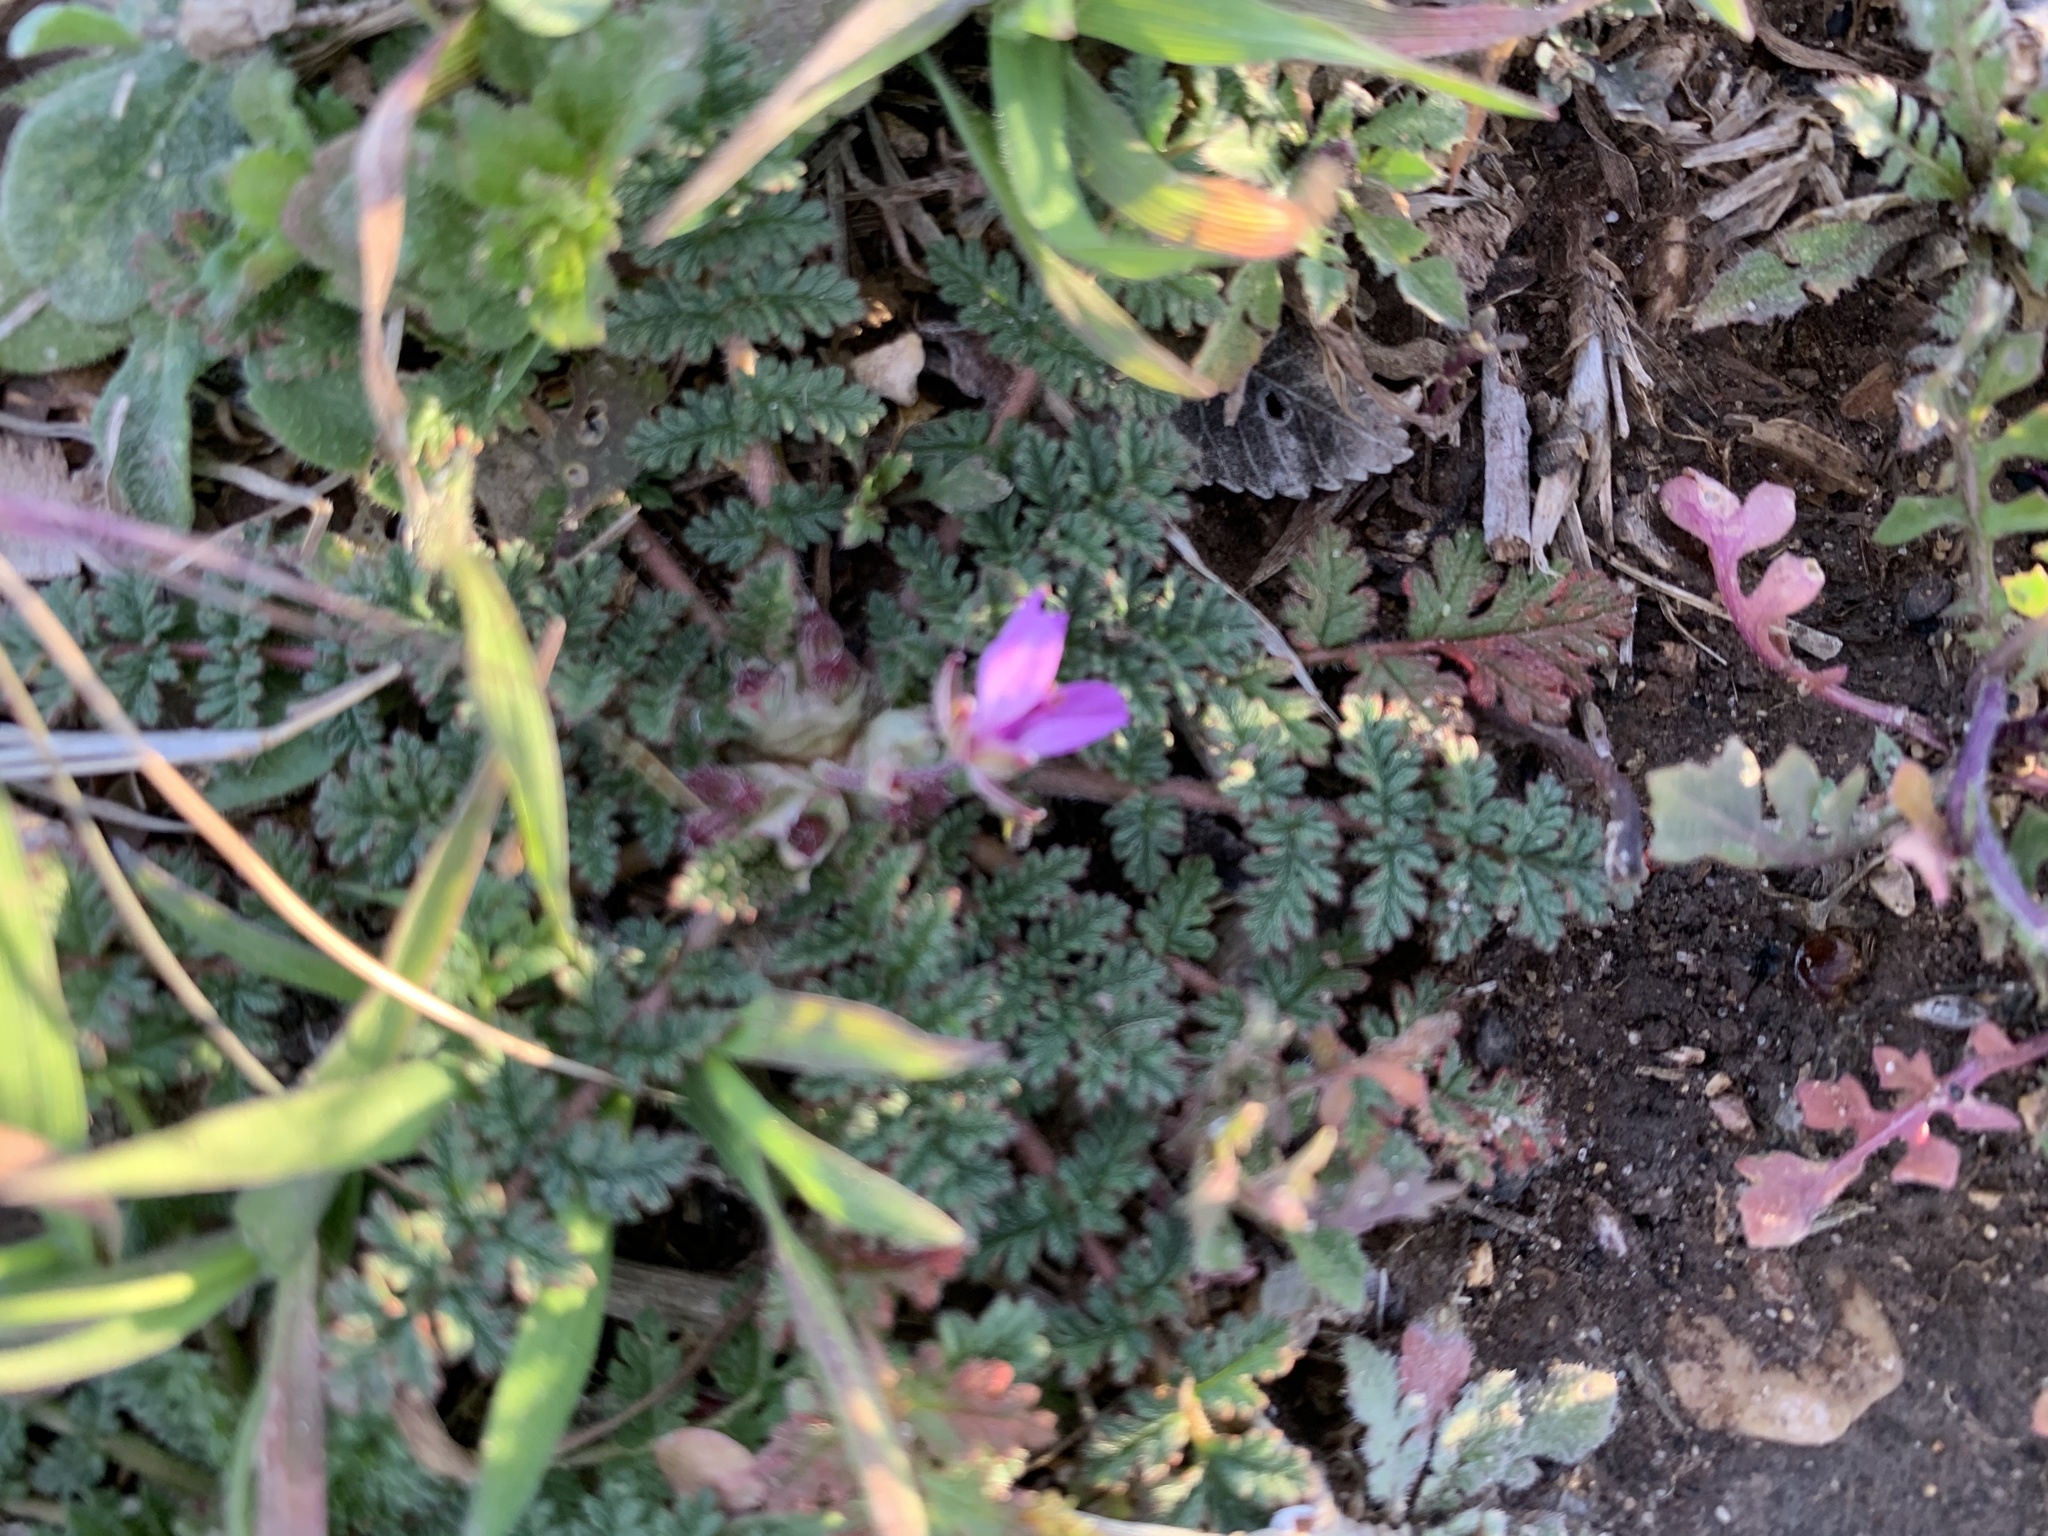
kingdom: Plantae
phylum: Tracheophyta
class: Magnoliopsida
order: Geraniales
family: Geraniaceae
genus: Erodium
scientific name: Erodium cicutarium
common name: Common stork's-bill
